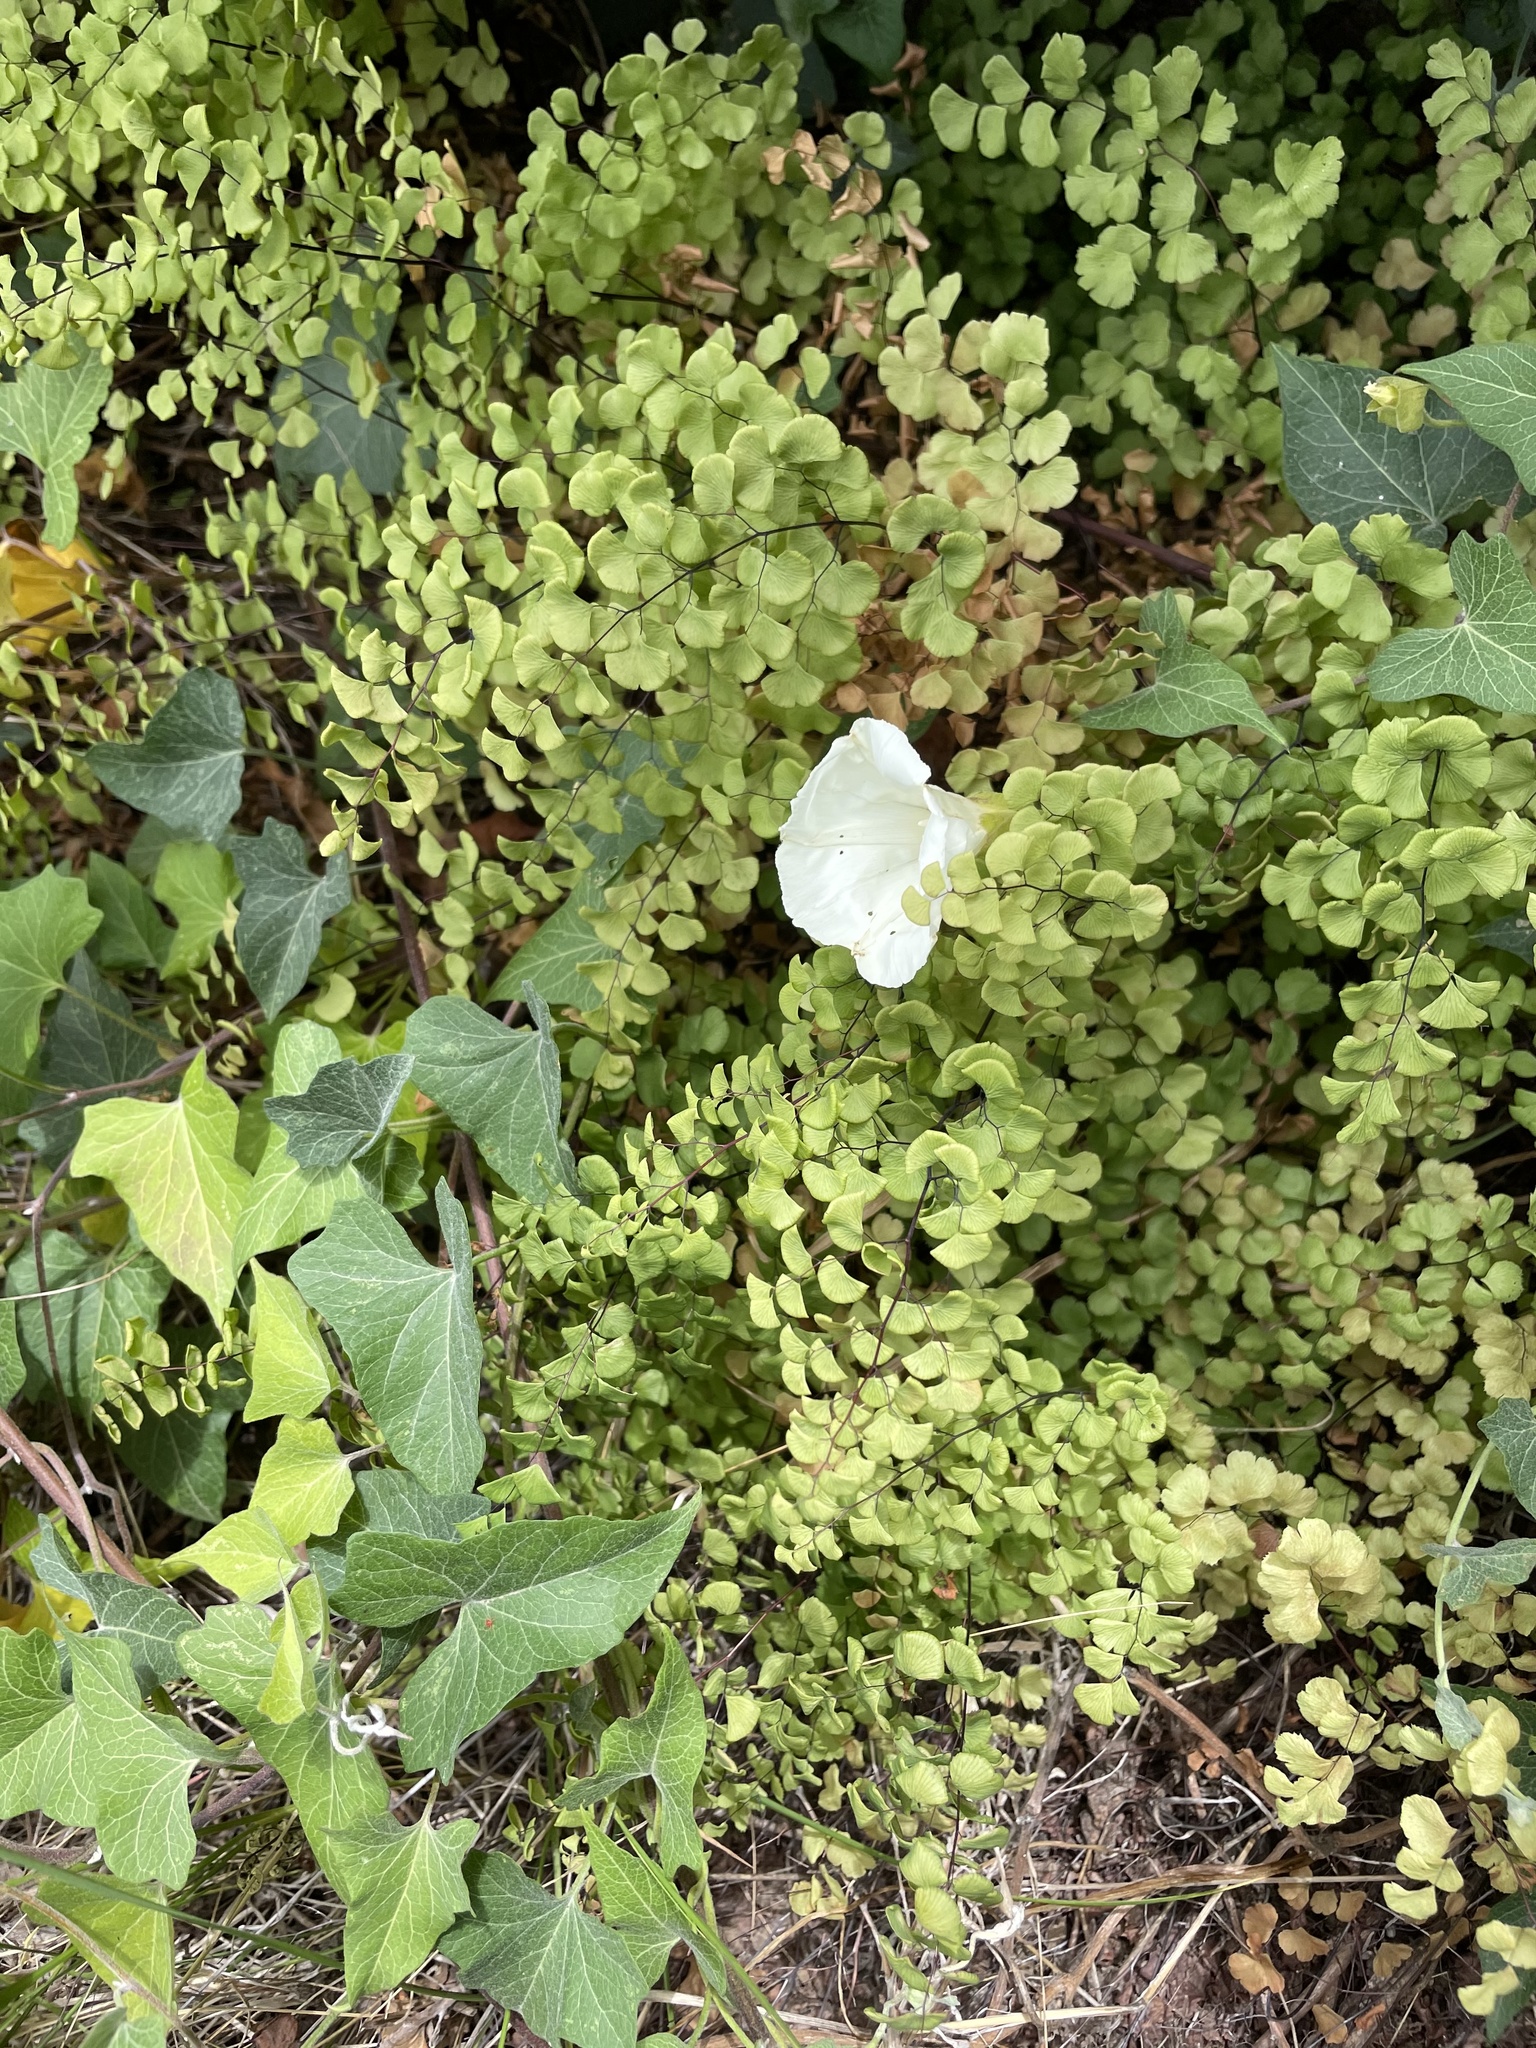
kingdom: Plantae
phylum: Tracheophyta
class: Polypodiopsida
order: Polypodiales
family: Pteridaceae
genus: Adiantum
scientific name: Adiantum jordanii
